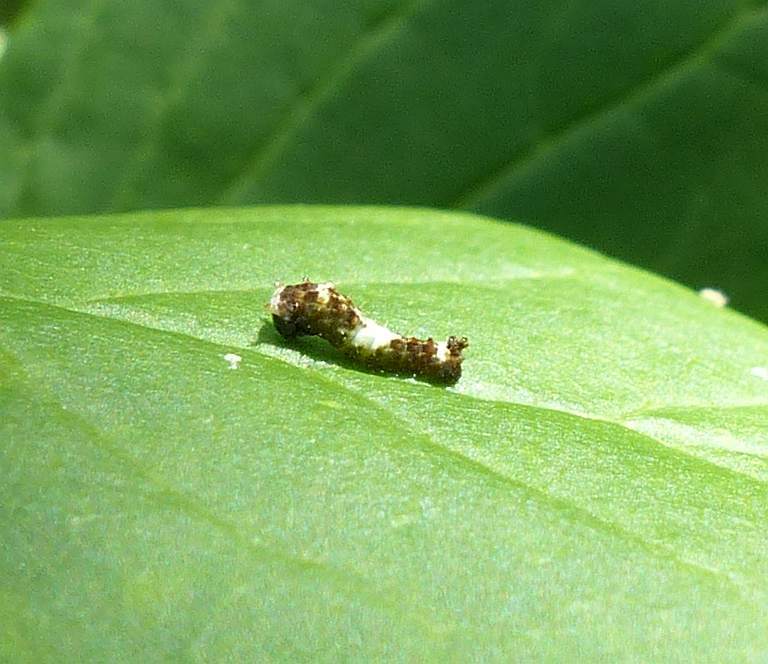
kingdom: Animalia
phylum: Arthropoda
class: Insecta
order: Lepidoptera
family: Papilionidae
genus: Papilio
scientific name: Papilio canadensis
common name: Canadian tiger swallowtail
